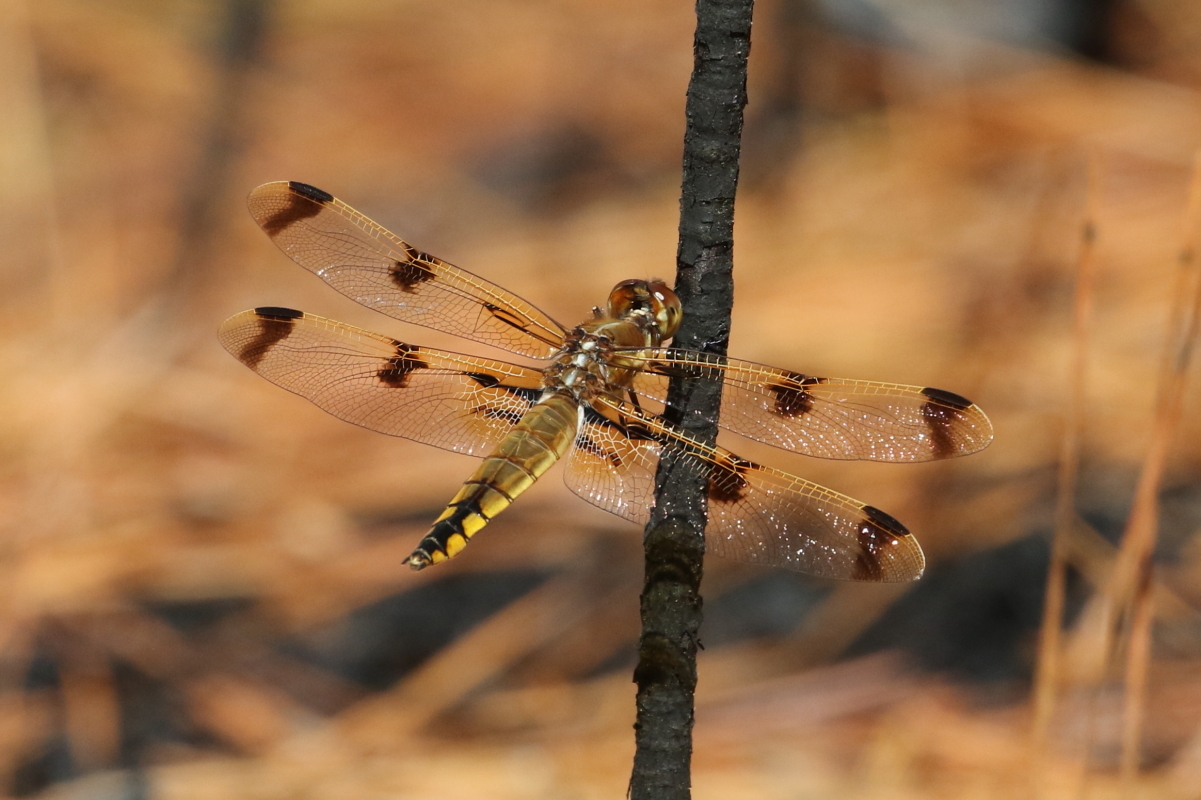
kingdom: Animalia
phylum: Arthropoda
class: Insecta
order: Odonata
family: Libellulidae
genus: Libellula
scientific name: Libellula semifasciata
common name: Painted skimmer
